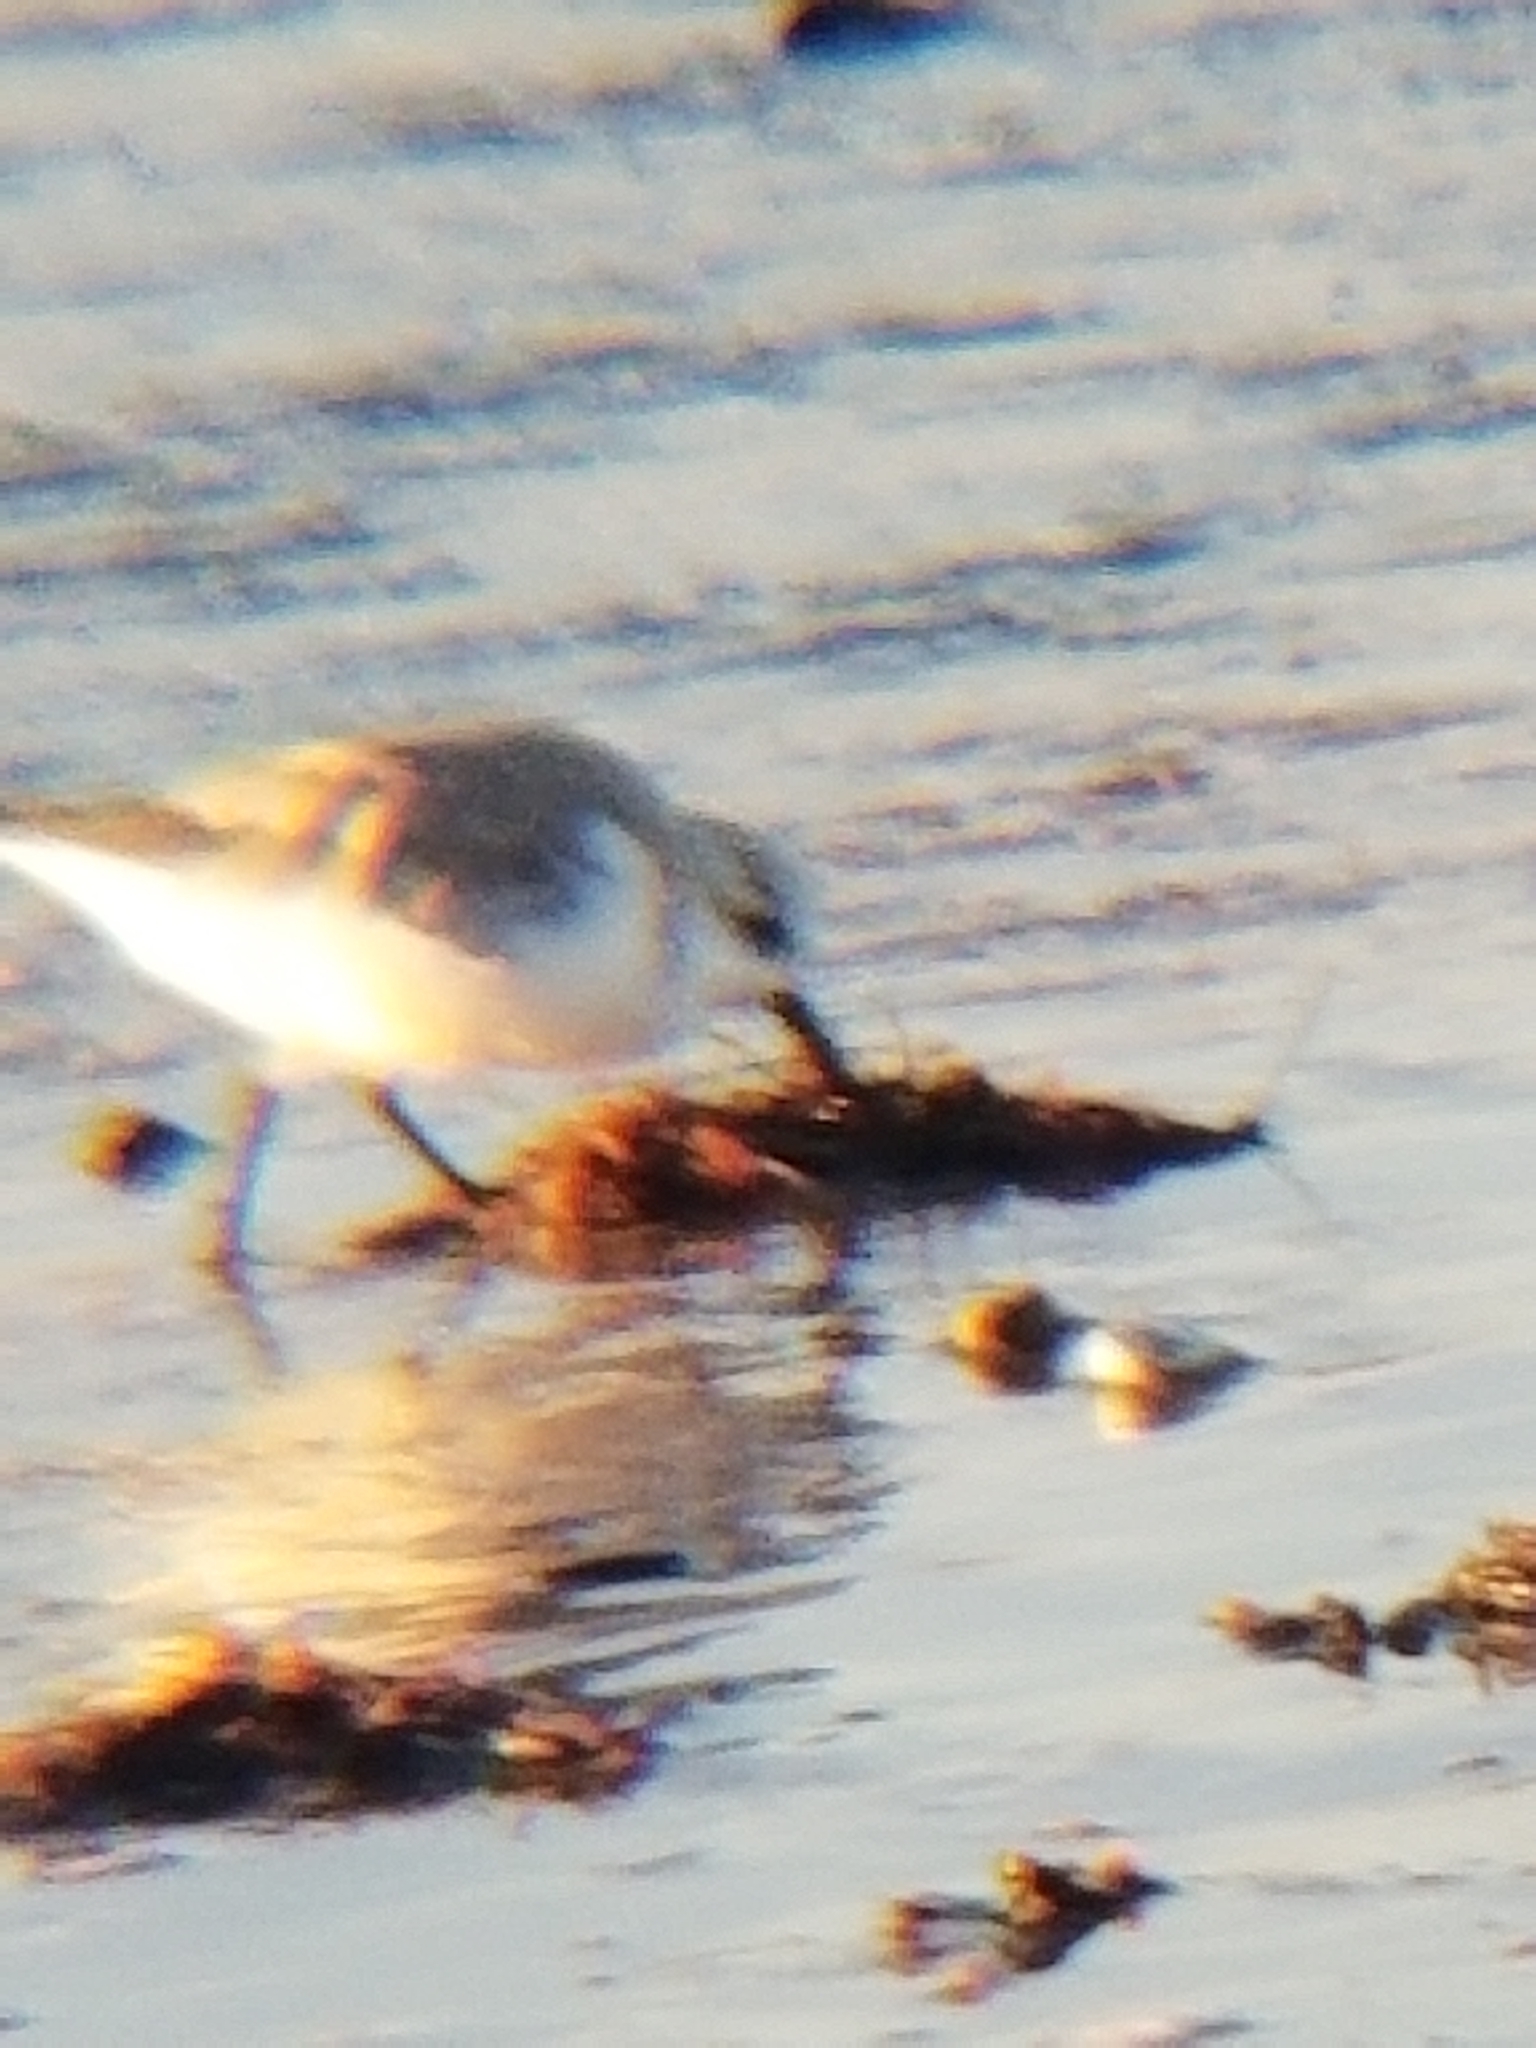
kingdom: Animalia
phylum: Chordata
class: Aves
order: Charadriiformes
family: Scolopacidae
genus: Calidris
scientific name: Calidris alba
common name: Sanderling
